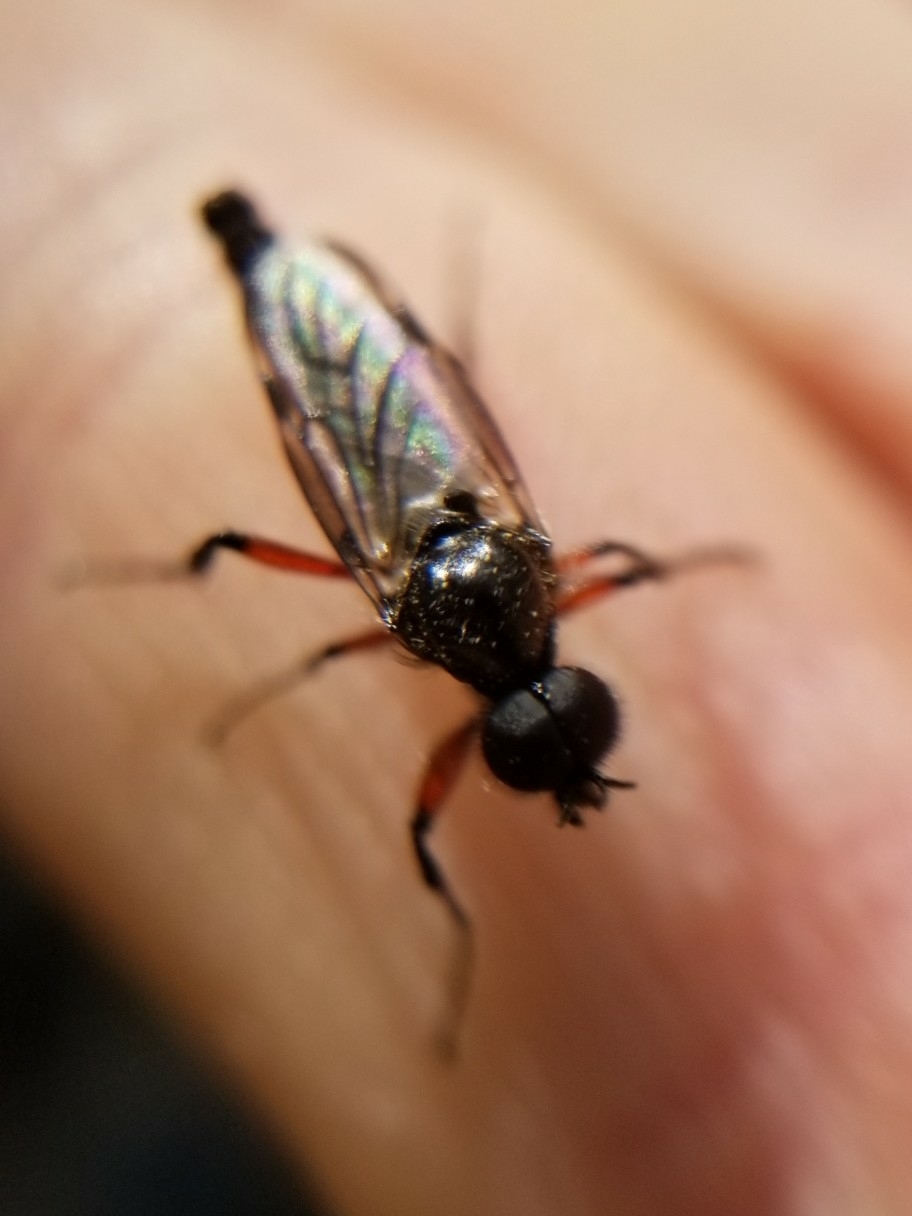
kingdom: Animalia
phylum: Arthropoda
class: Insecta
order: Diptera
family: Bibionidae
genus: Bibio
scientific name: Bibio femoratus
